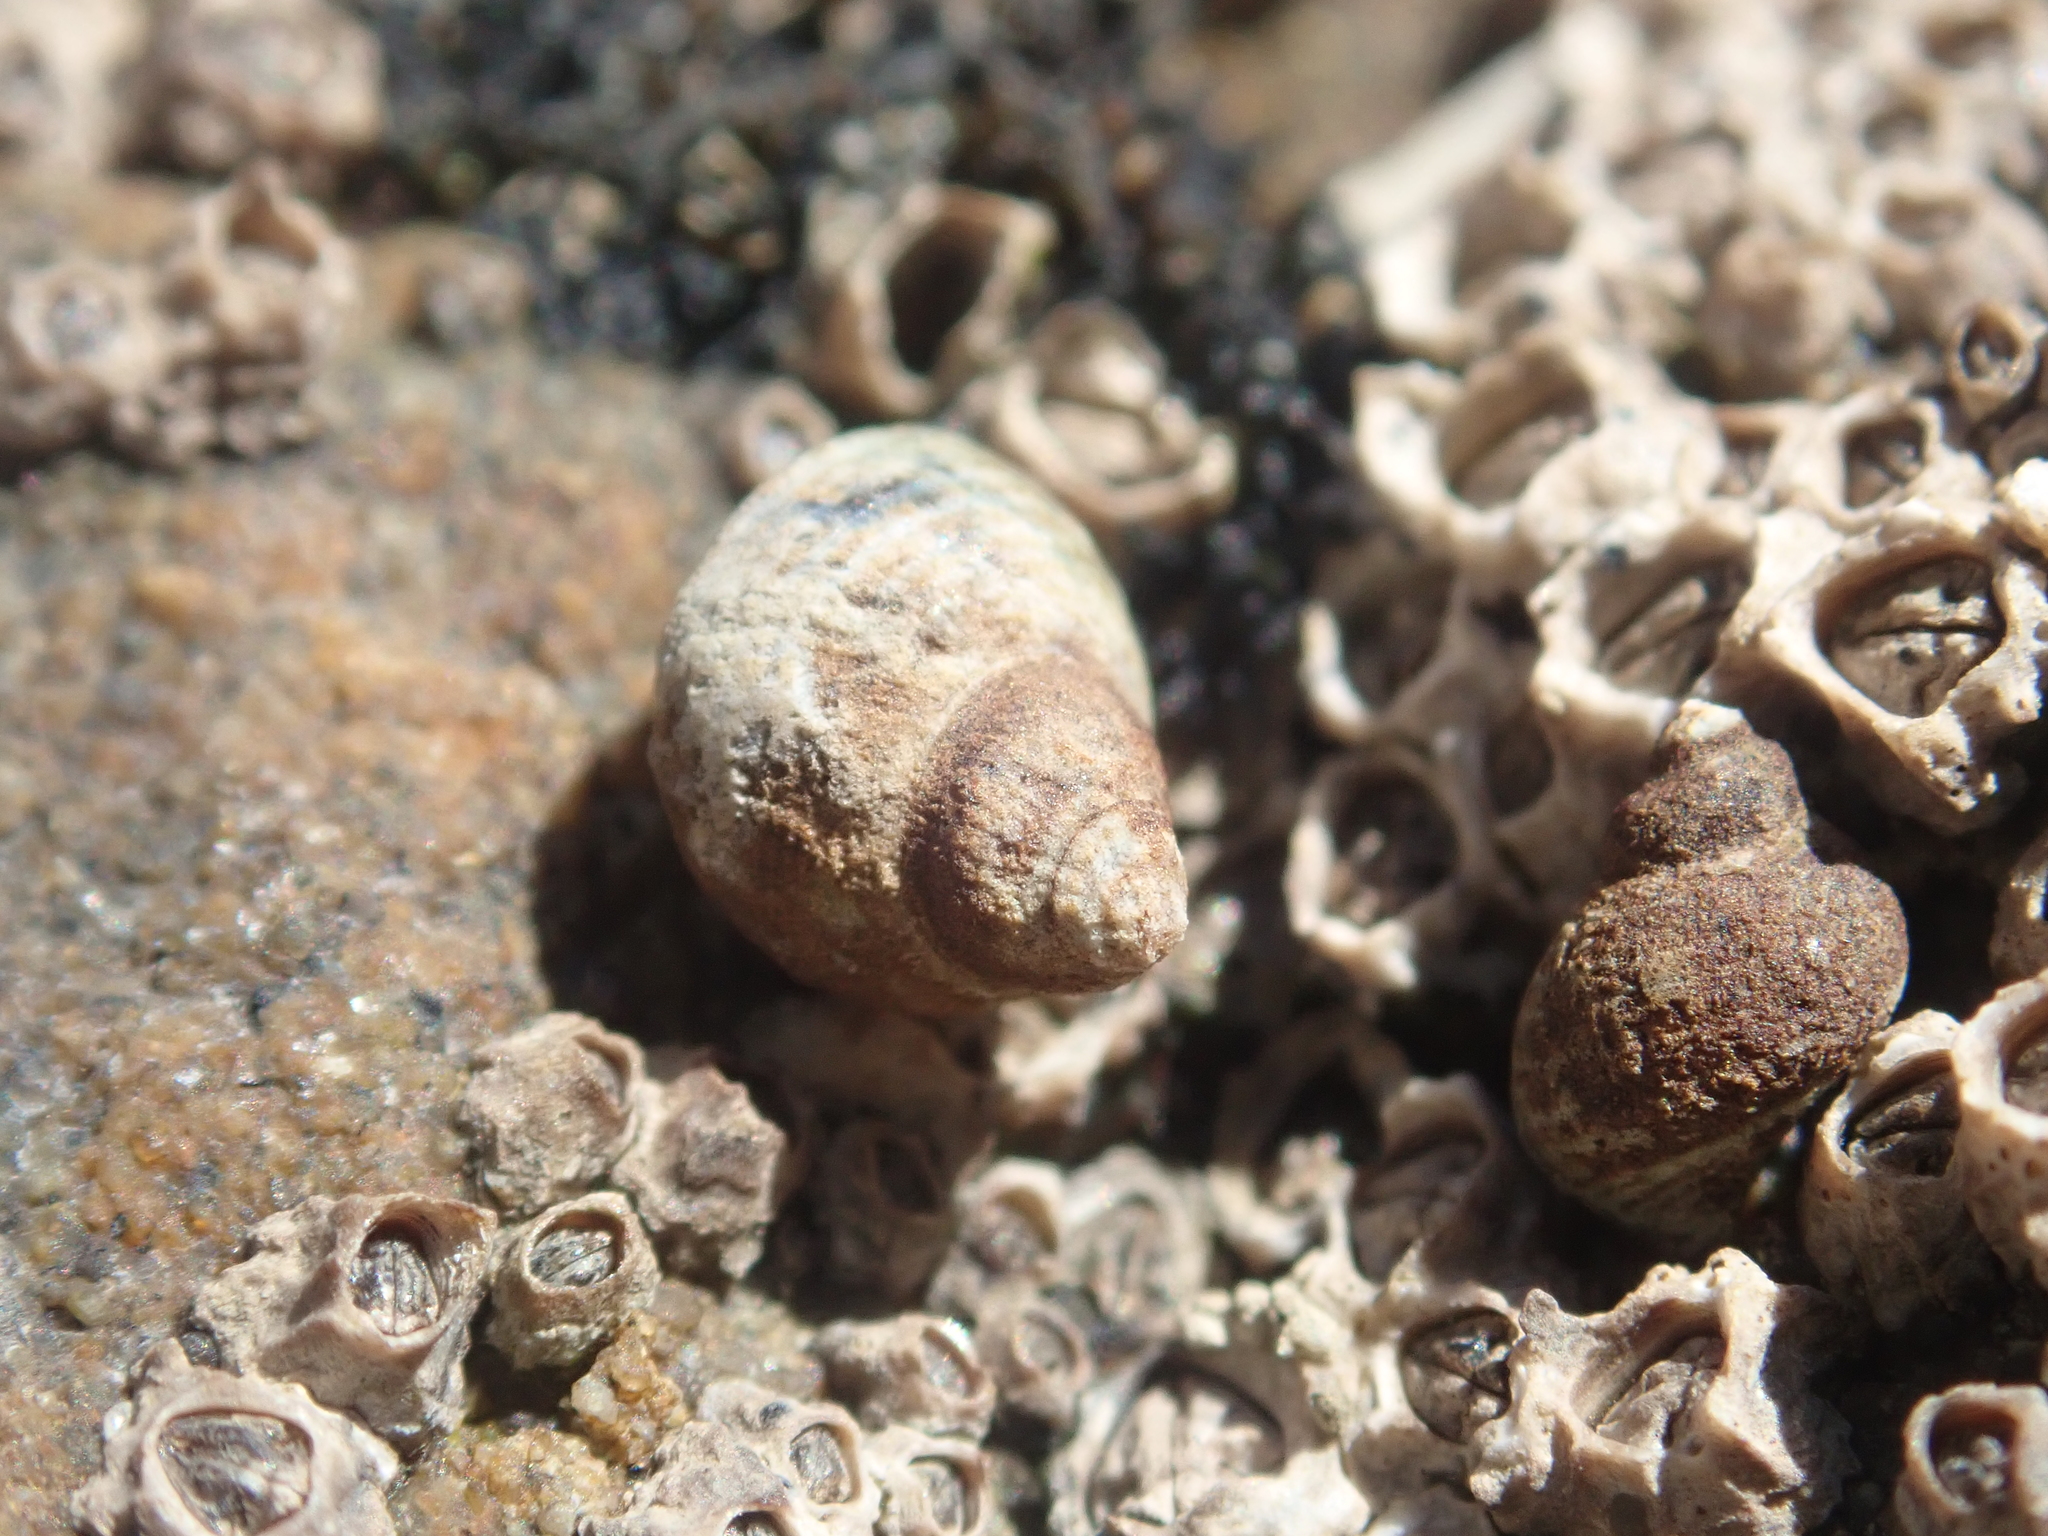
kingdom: Animalia
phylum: Mollusca
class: Gastropoda
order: Littorinimorpha
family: Littorinidae
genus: Austrolittorina
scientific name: Austrolittorina cincta
